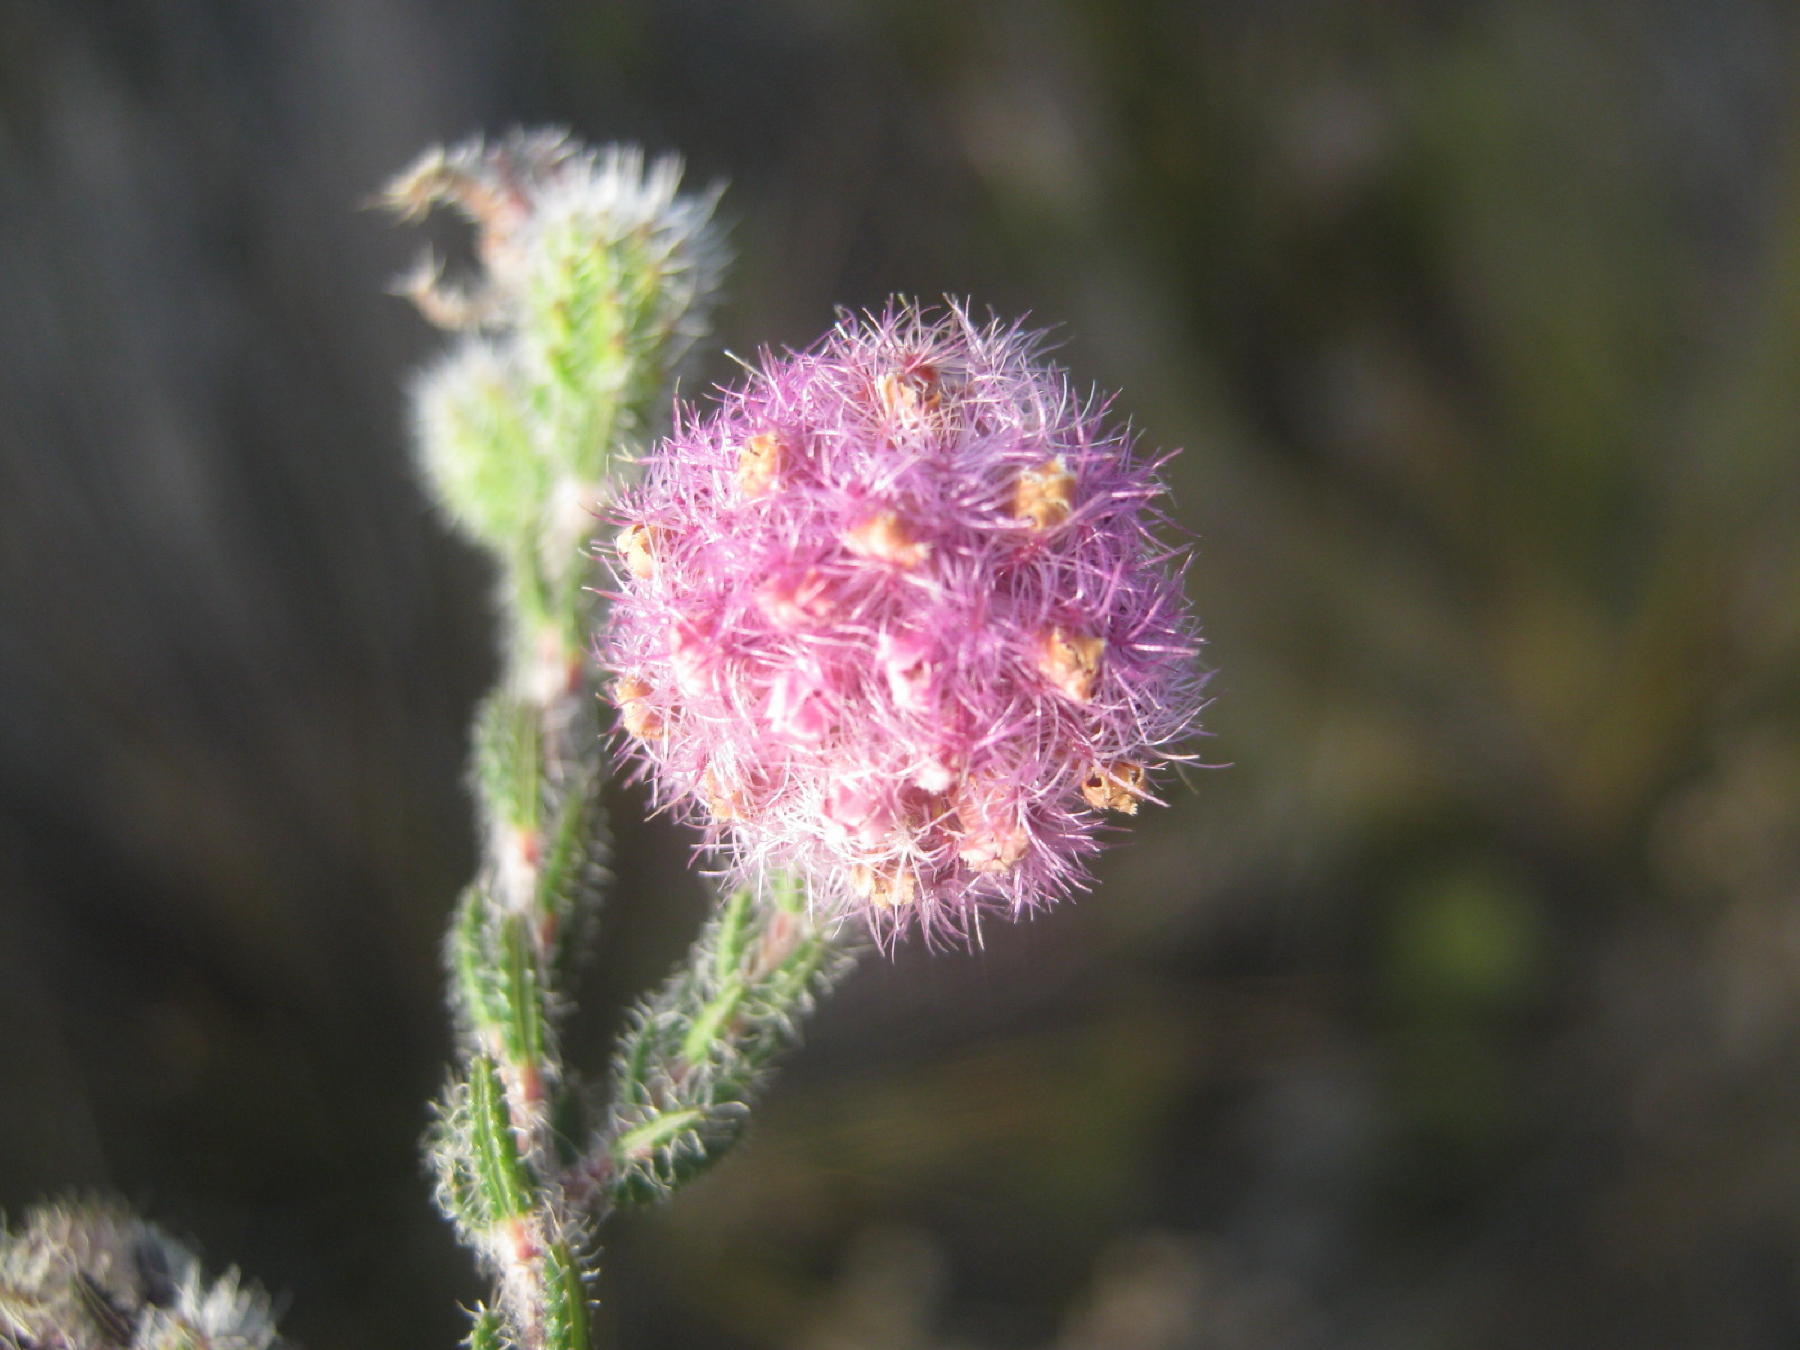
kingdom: Plantae
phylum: Tracheophyta
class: Magnoliopsida
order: Ericales
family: Ericaceae
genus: Erica
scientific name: Erica solandra
